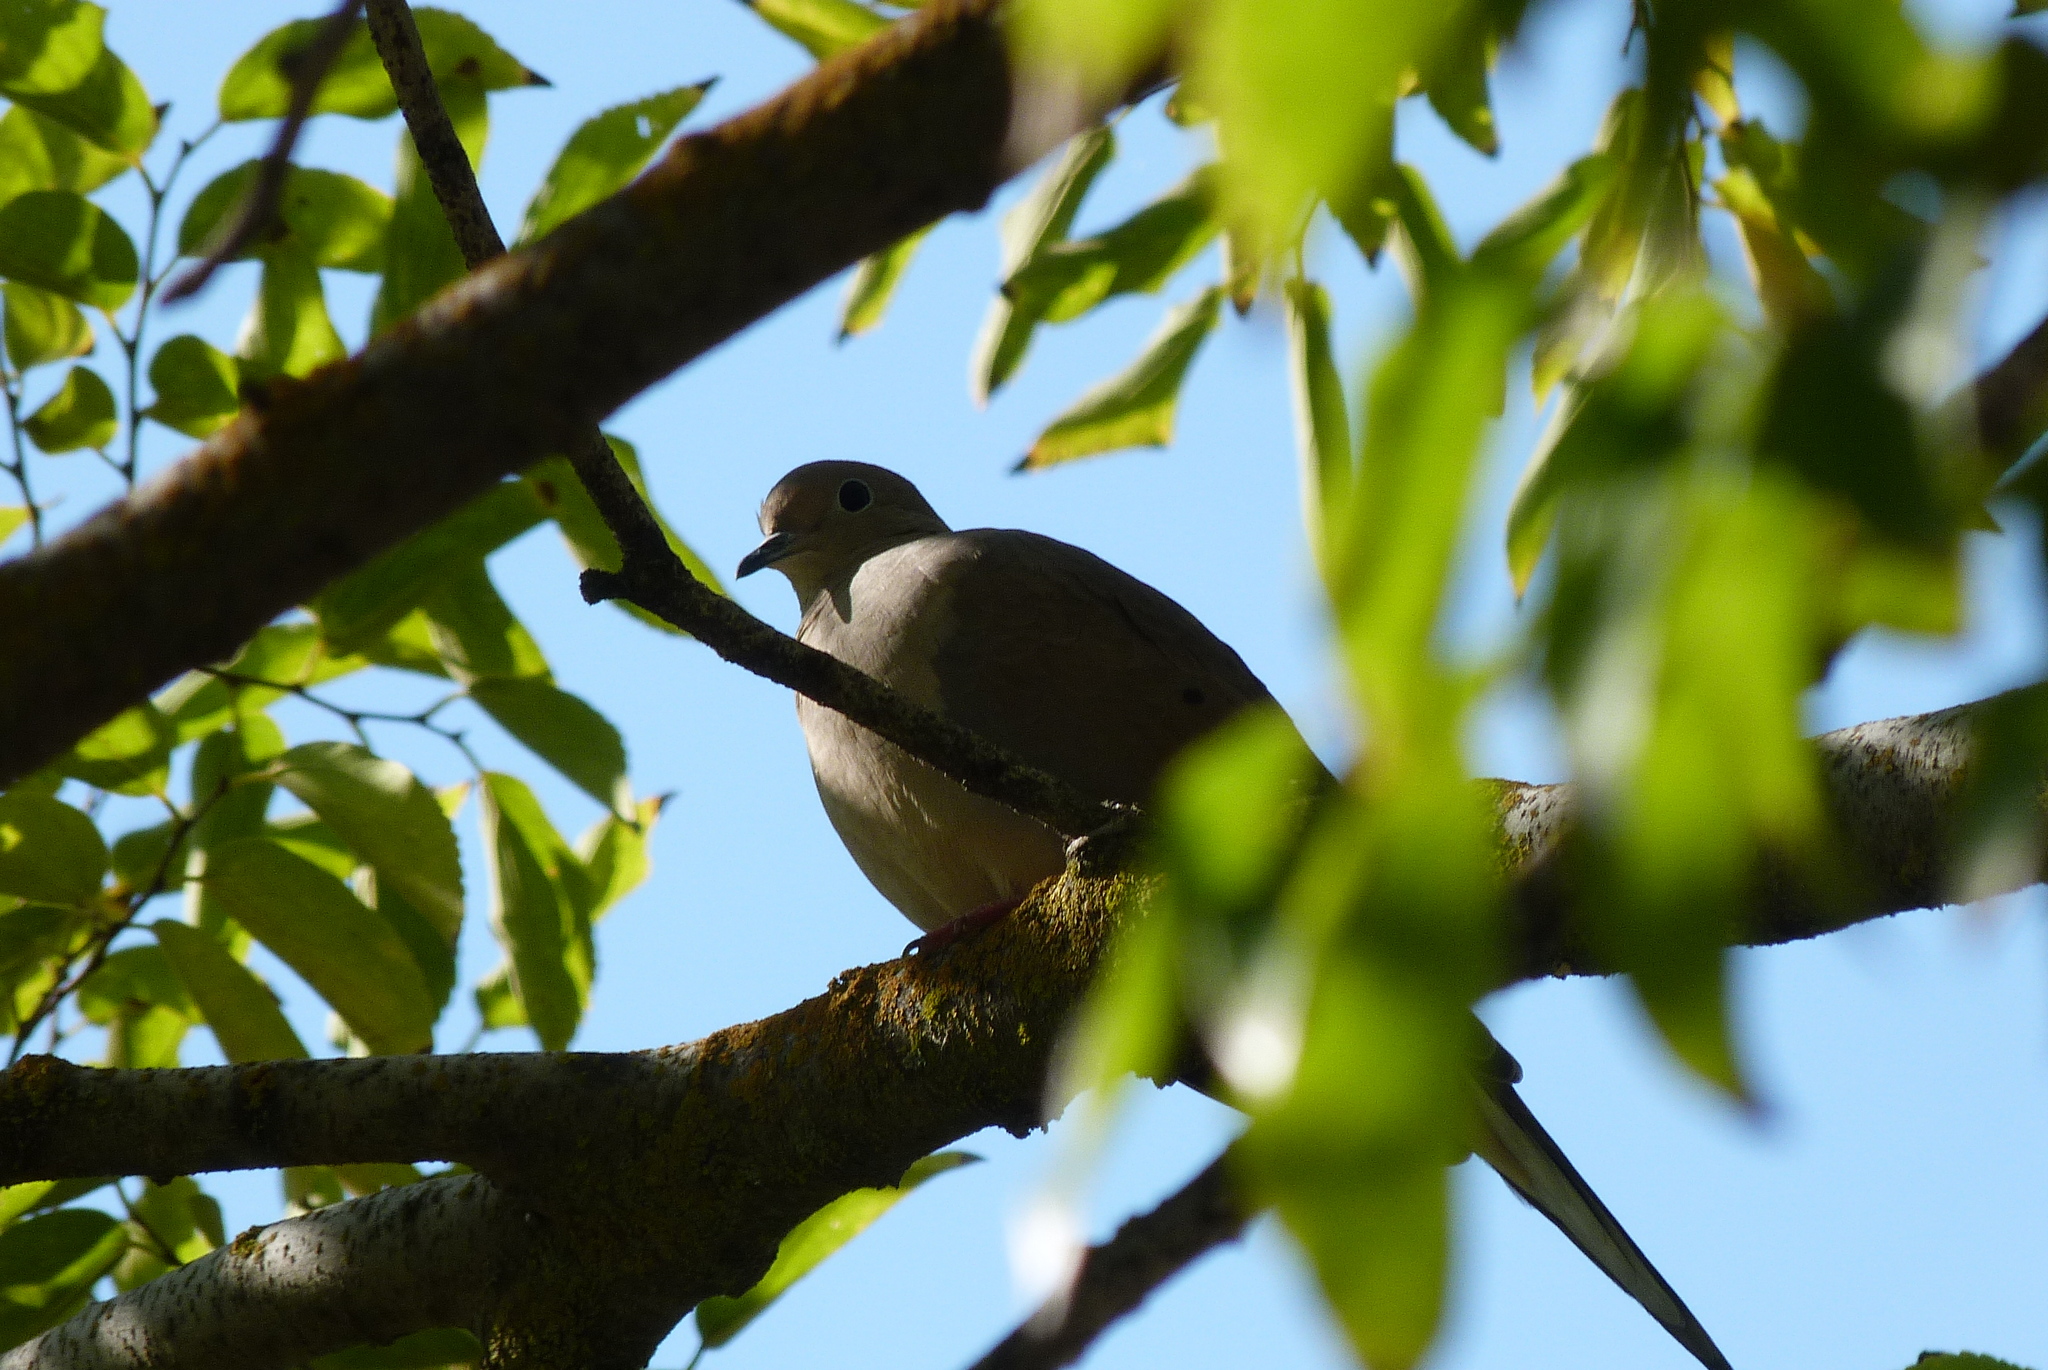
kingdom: Animalia
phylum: Chordata
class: Aves
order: Columbiformes
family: Columbidae
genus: Zenaida
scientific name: Zenaida macroura
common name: Mourning dove
